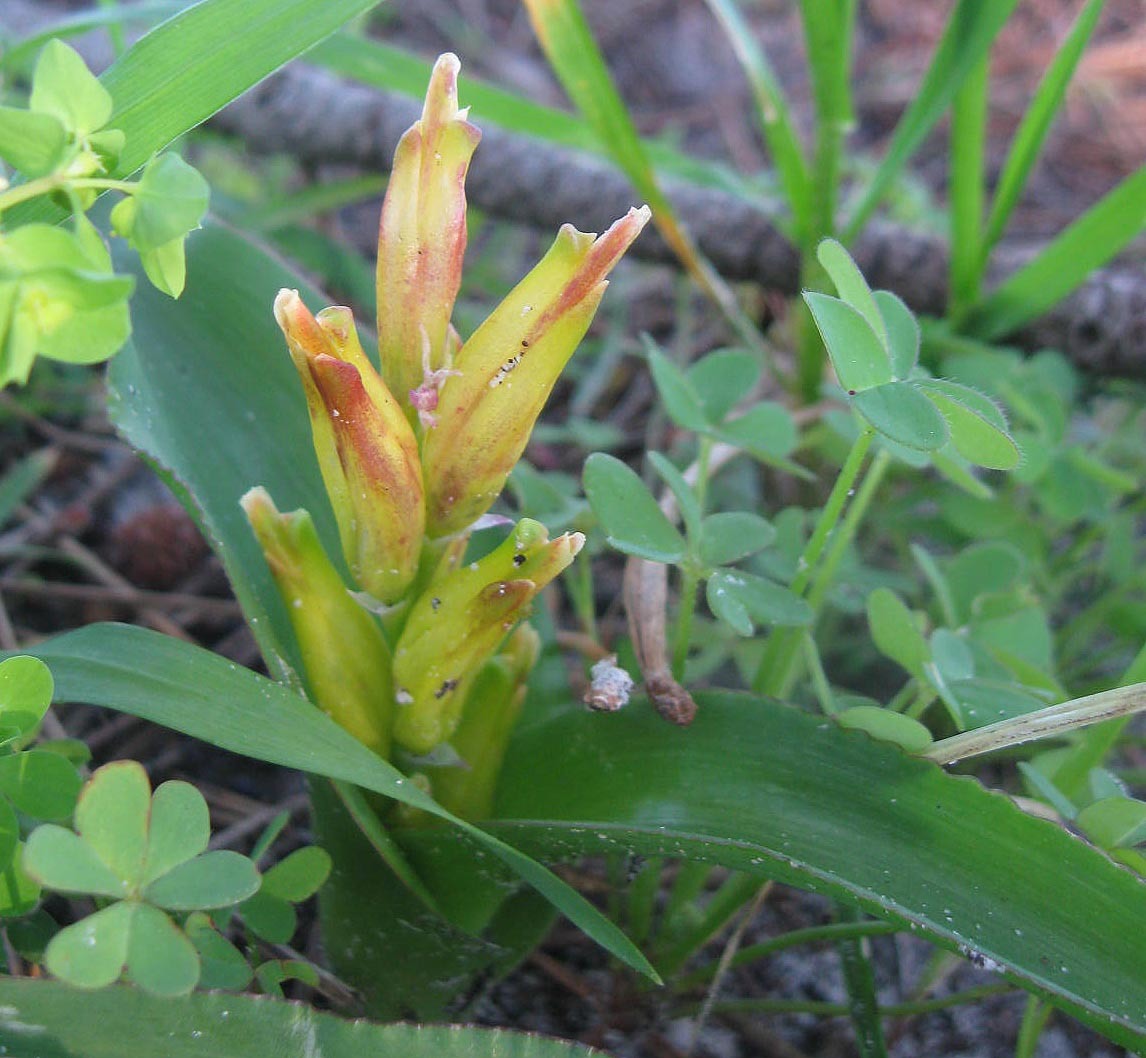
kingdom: Plantae
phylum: Tracheophyta
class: Liliopsida
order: Asparagales
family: Asparagaceae
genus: Lachenalia
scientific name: Lachenalia reflexa
